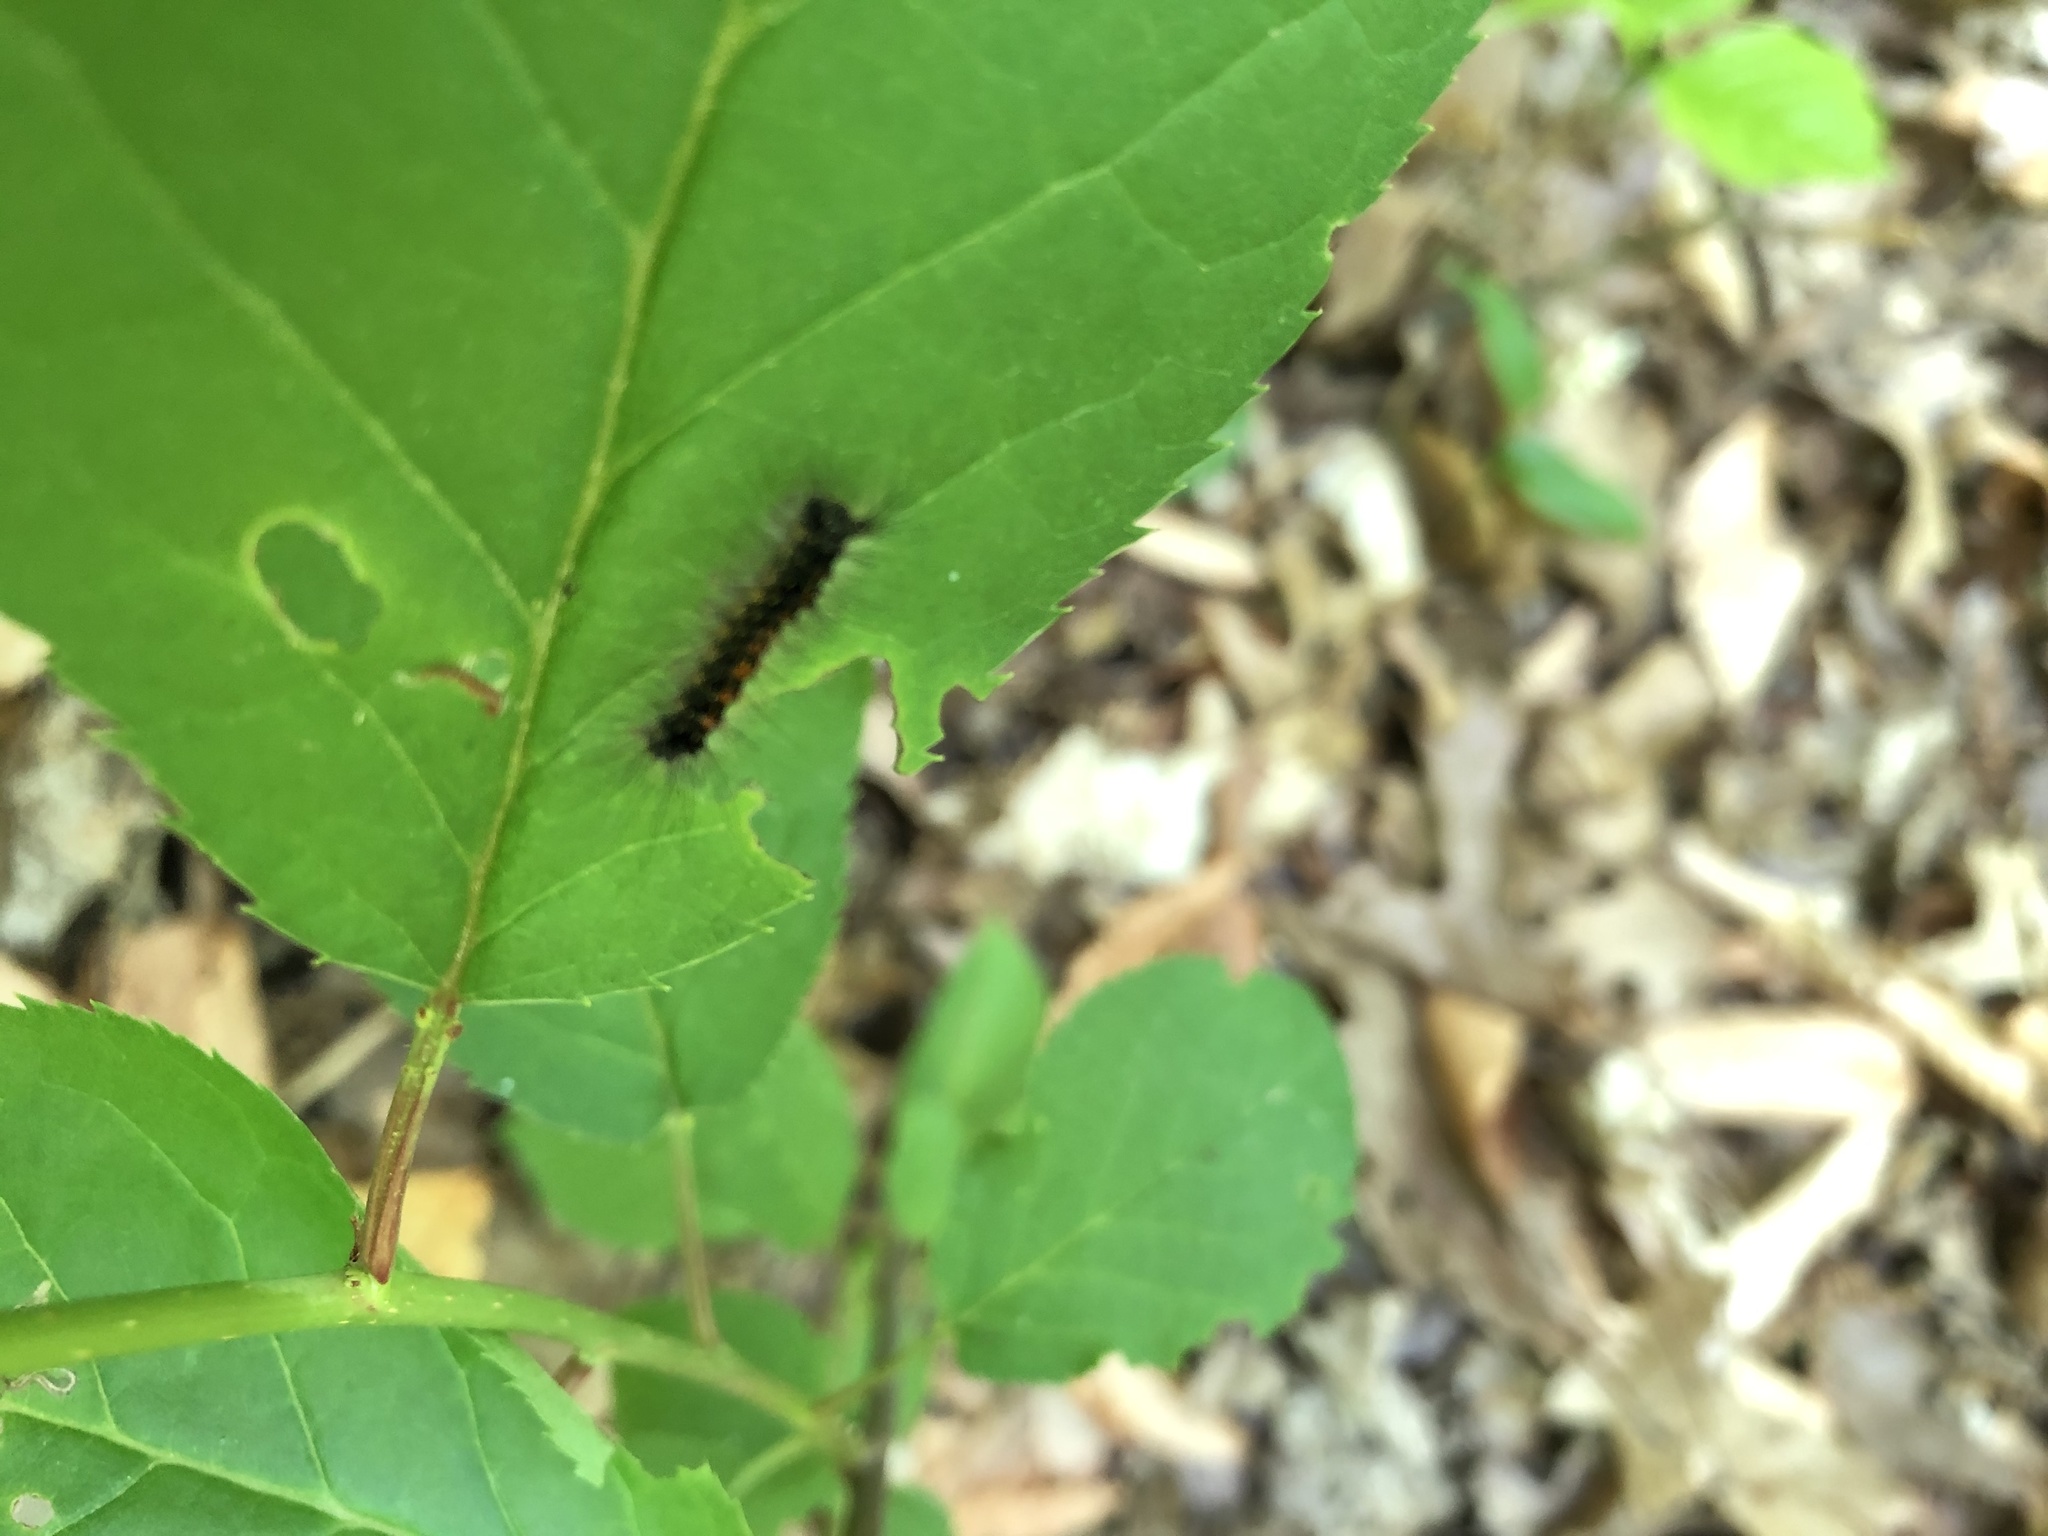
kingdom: Animalia
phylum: Arthropoda
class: Insecta
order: Lepidoptera
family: Erebidae
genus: Lymantria
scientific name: Lymantria dispar
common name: Gypsy moth
